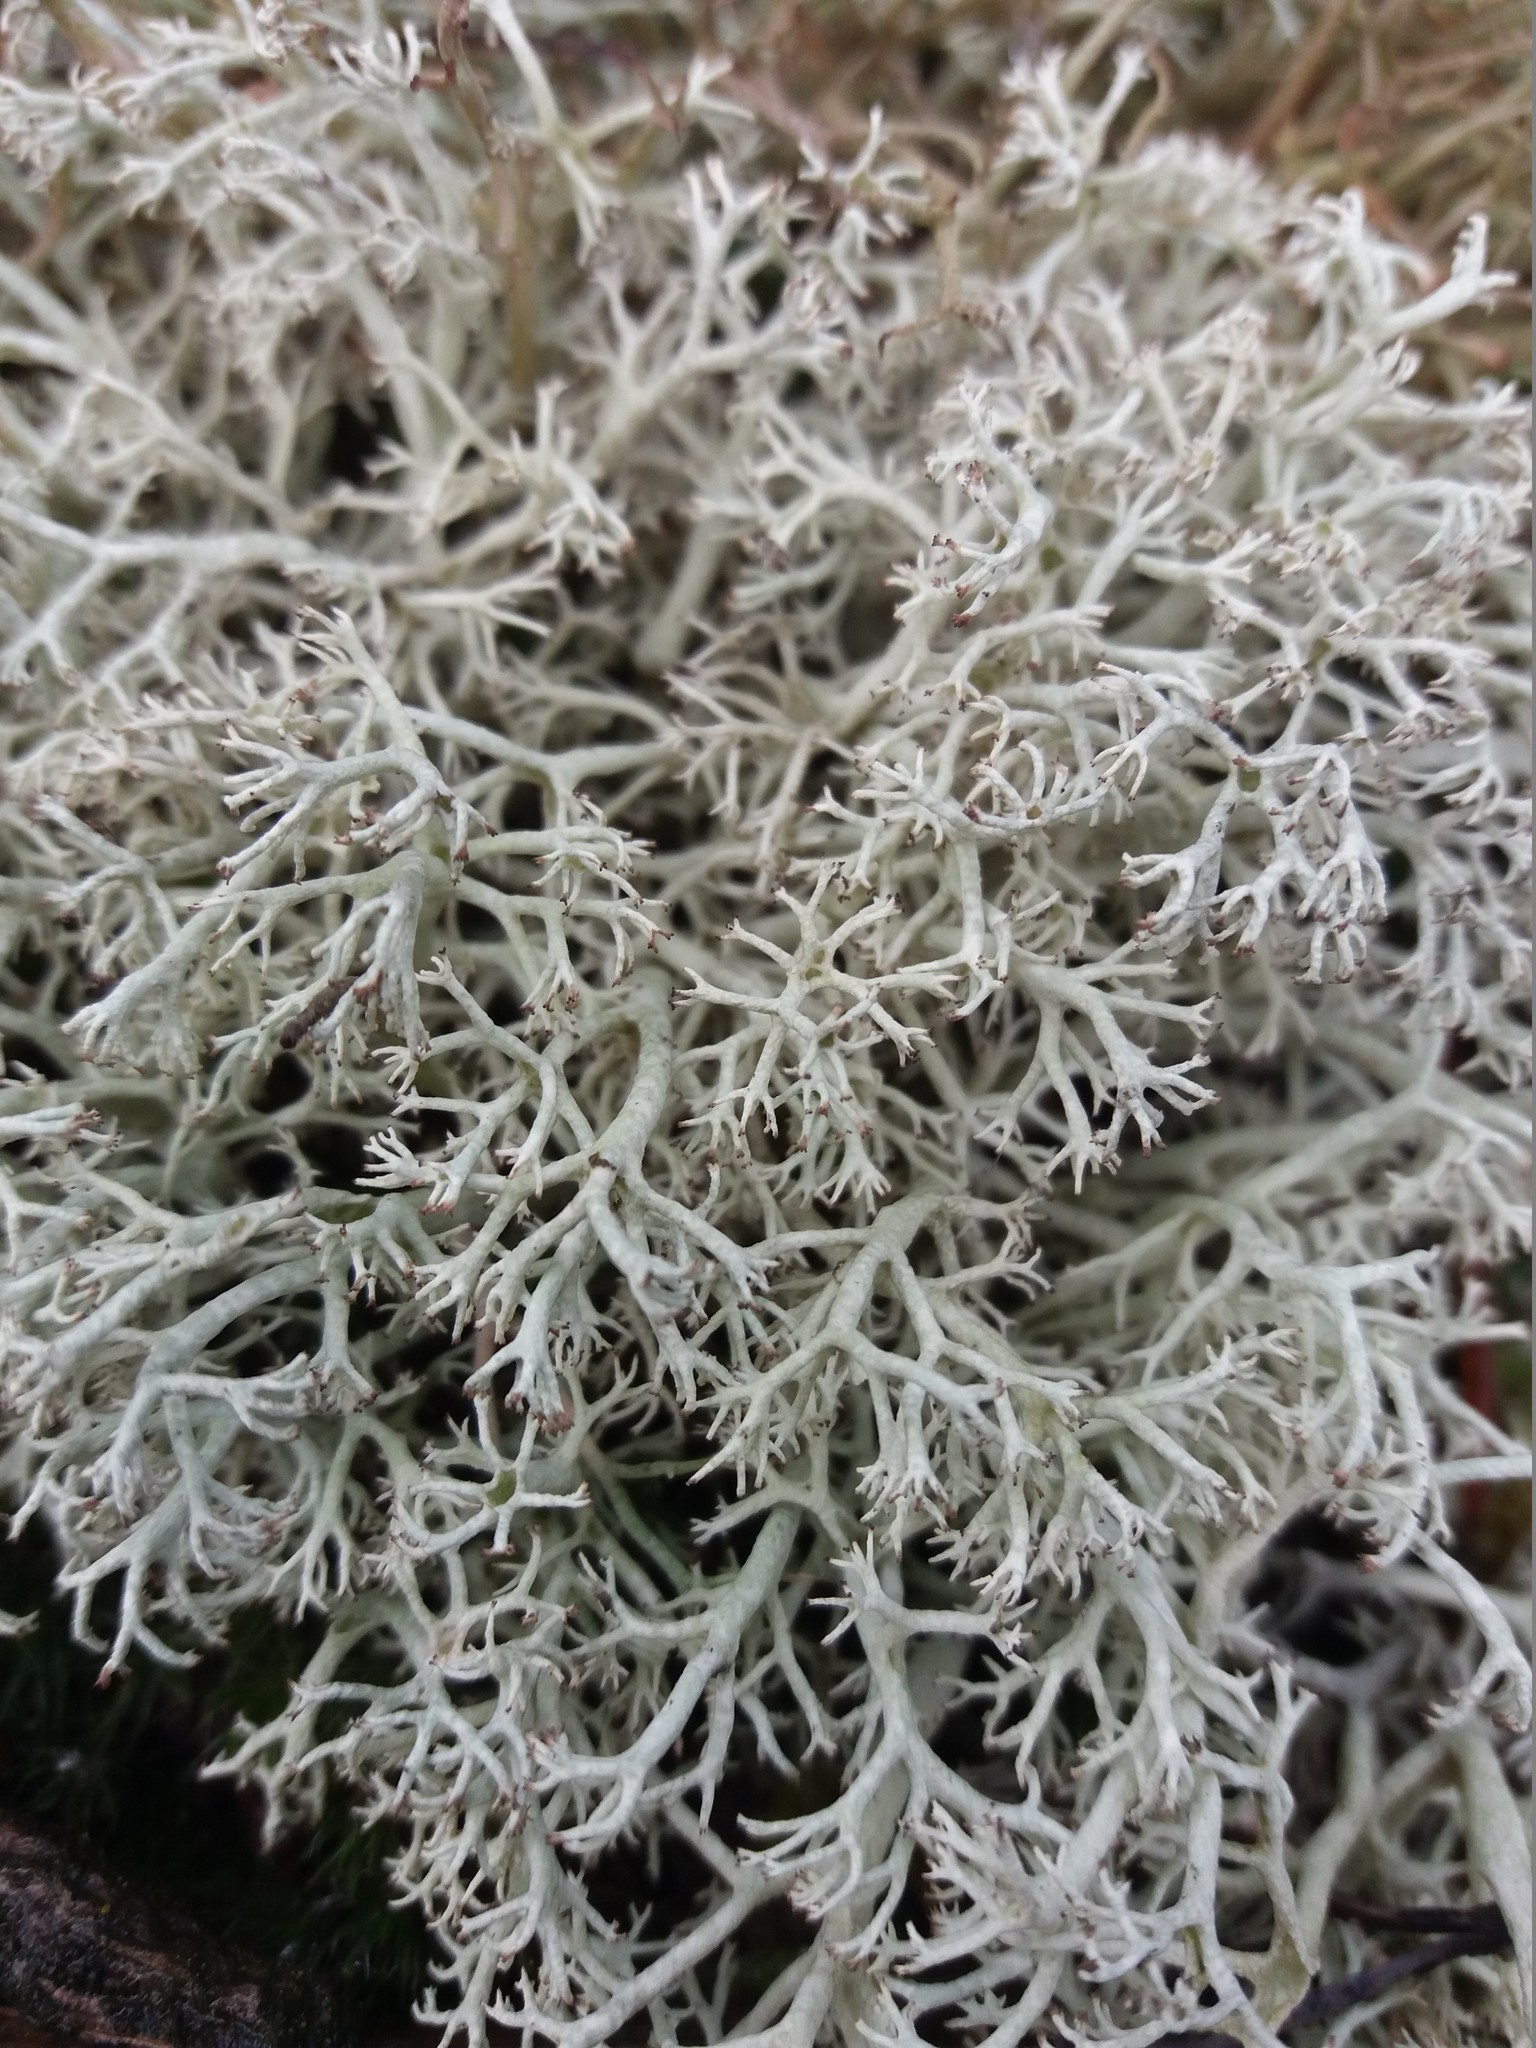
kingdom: Fungi
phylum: Ascomycota
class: Lecanoromycetes
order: Lecanorales
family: Cladoniaceae
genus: Cladonia
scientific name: Cladonia rangiferina
